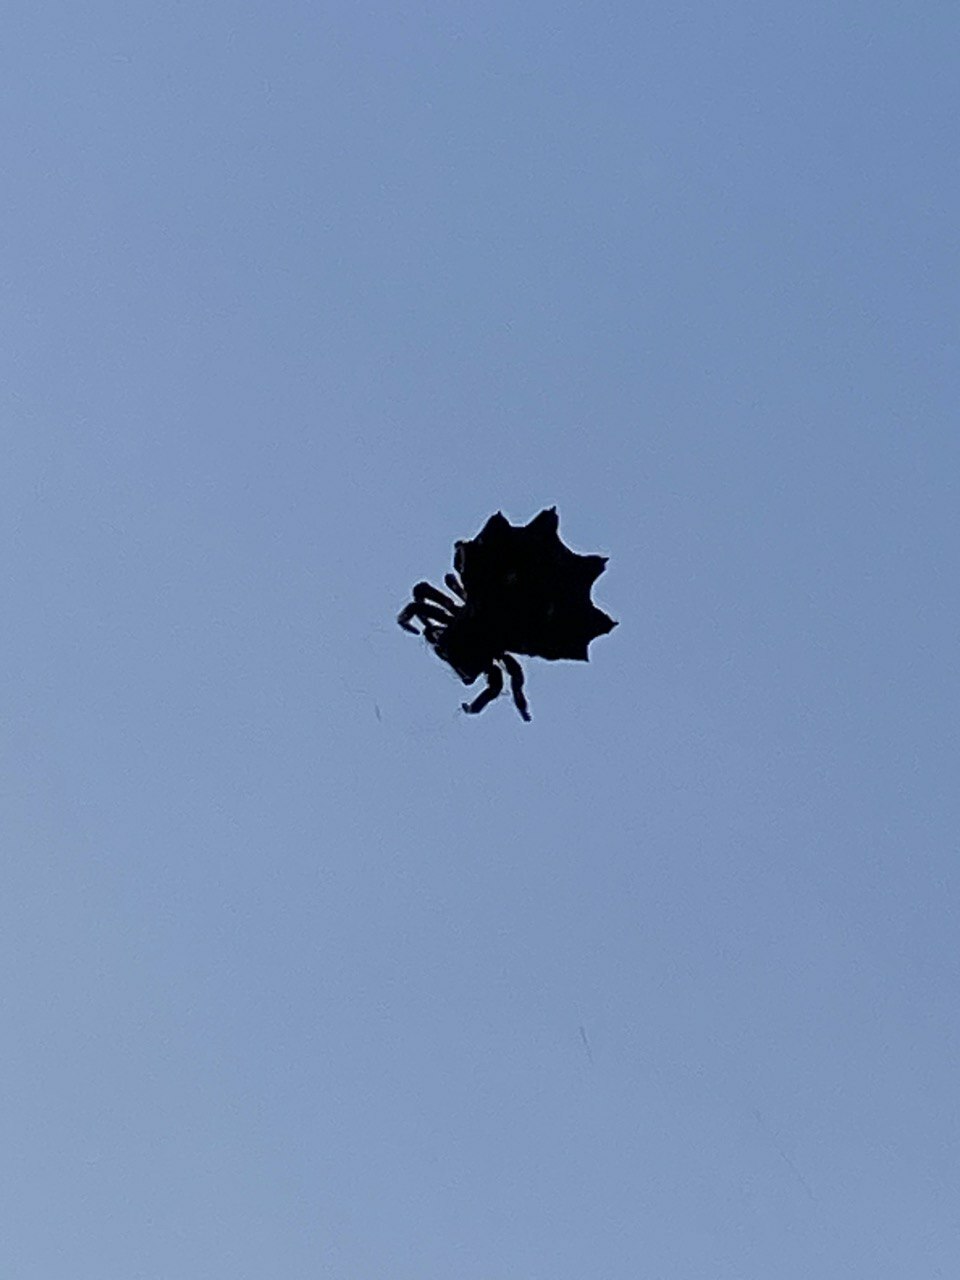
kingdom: Animalia
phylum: Arthropoda
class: Arachnida
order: Araneae
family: Araneidae
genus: Thelacantha
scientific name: Thelacantha brevispina
